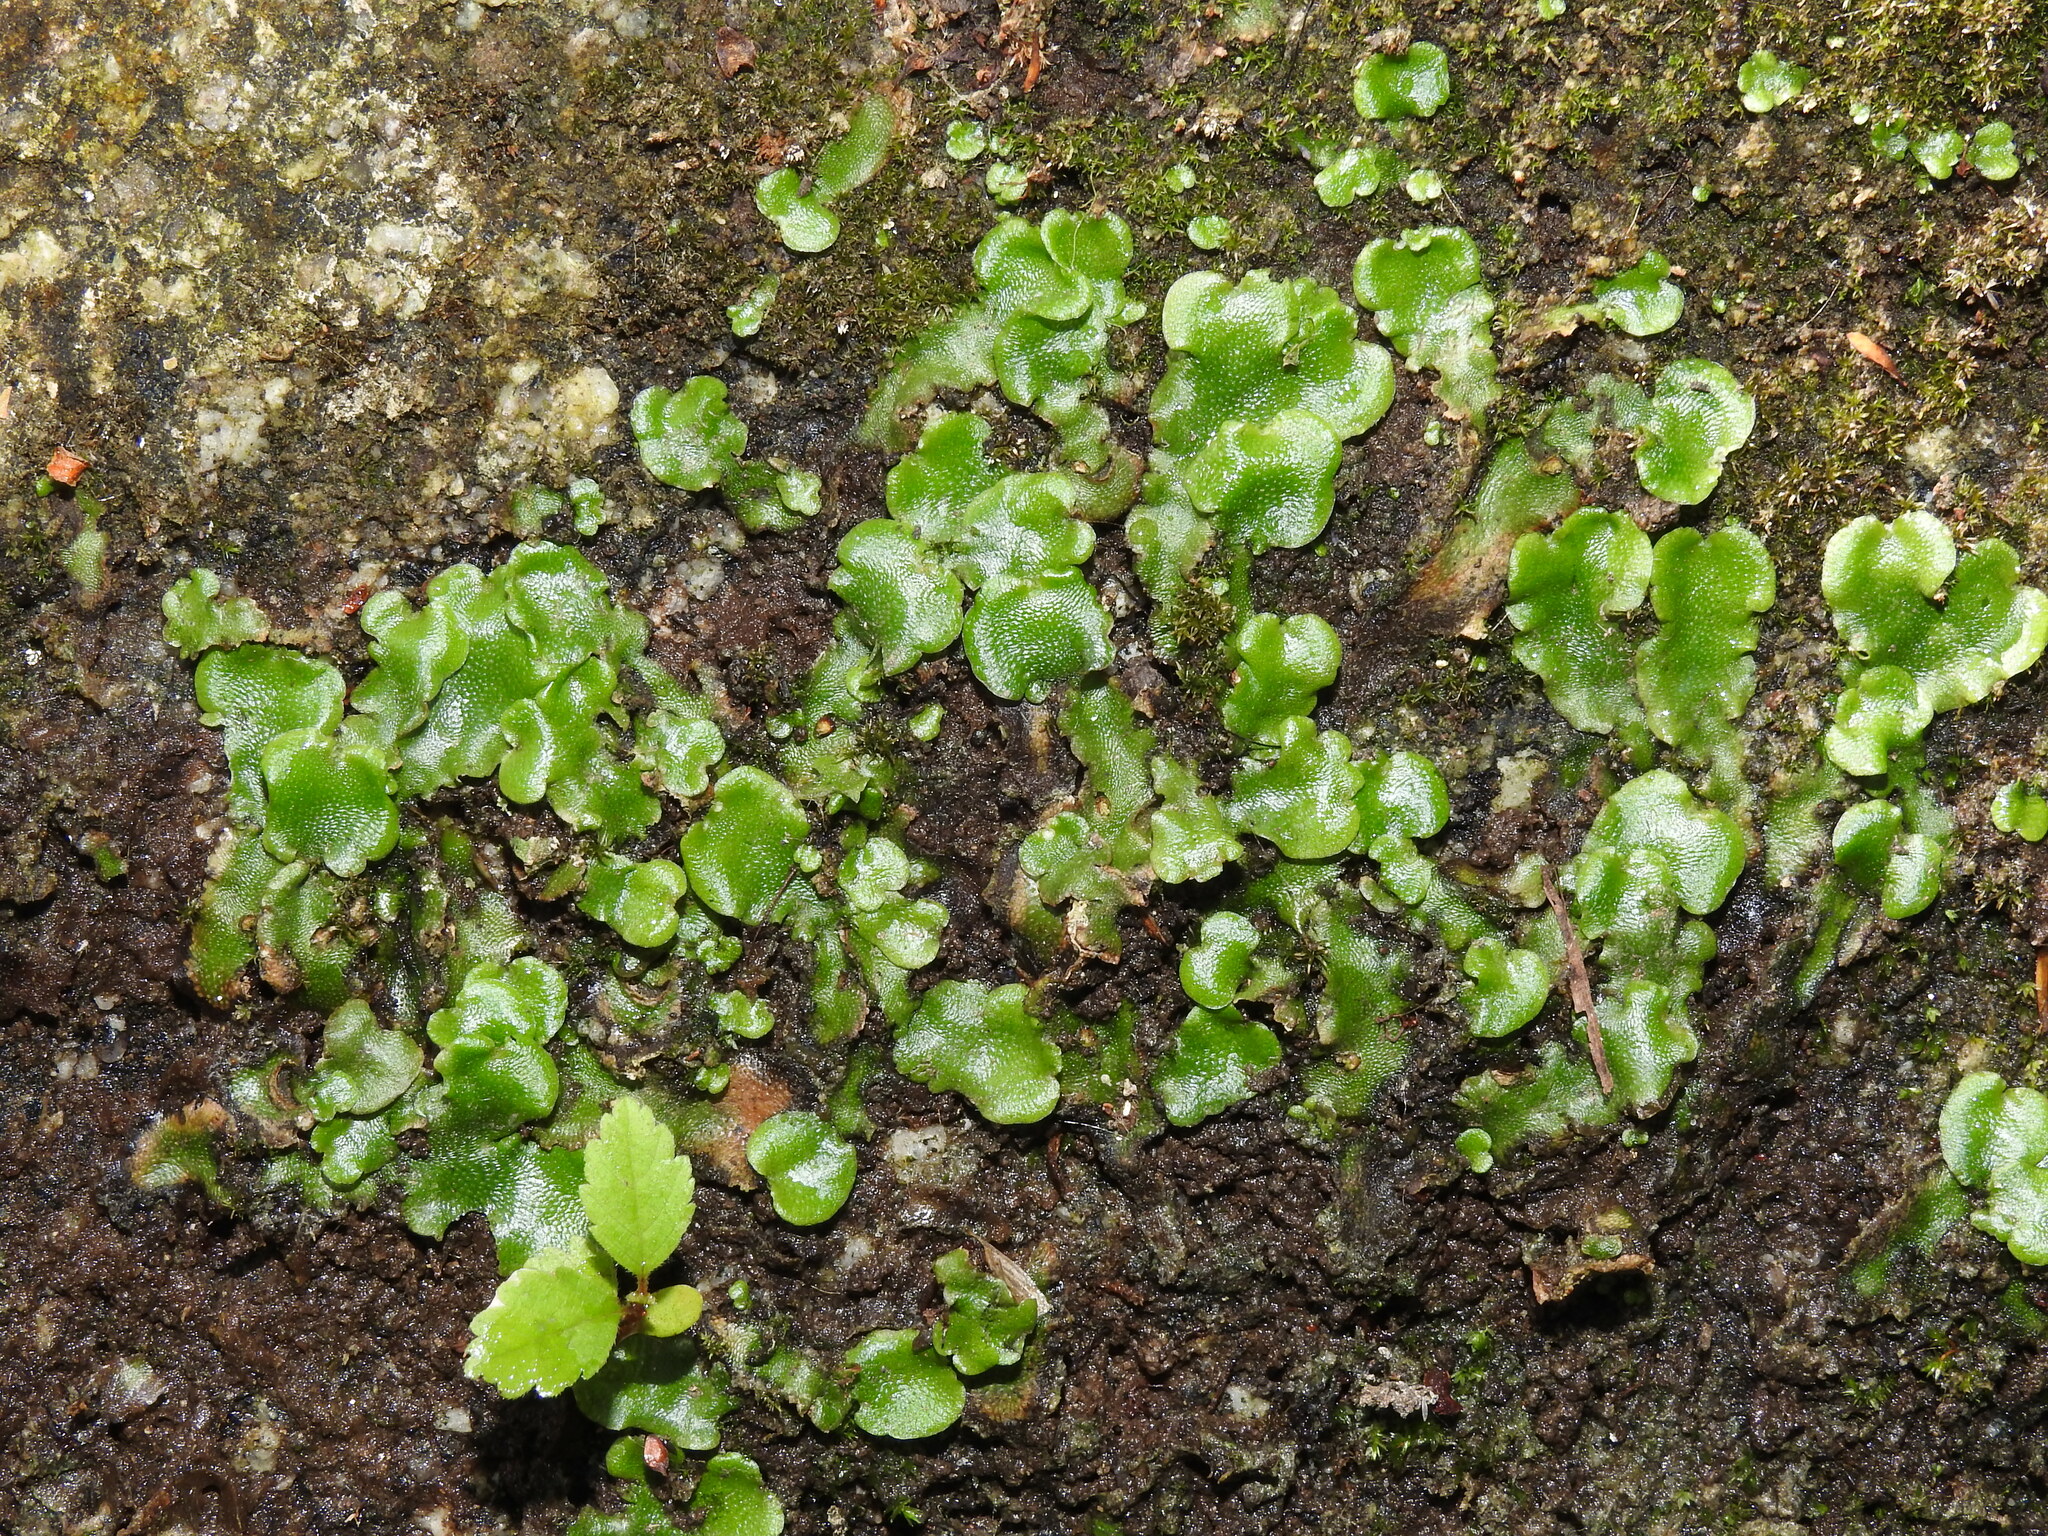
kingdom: Plantae
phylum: Marchantiophyta
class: Marchantiopsida
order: Lunulariales
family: Lunulariaceae
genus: Lunularia
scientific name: Lunularia cruciata
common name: Crescent-cup liverwort
